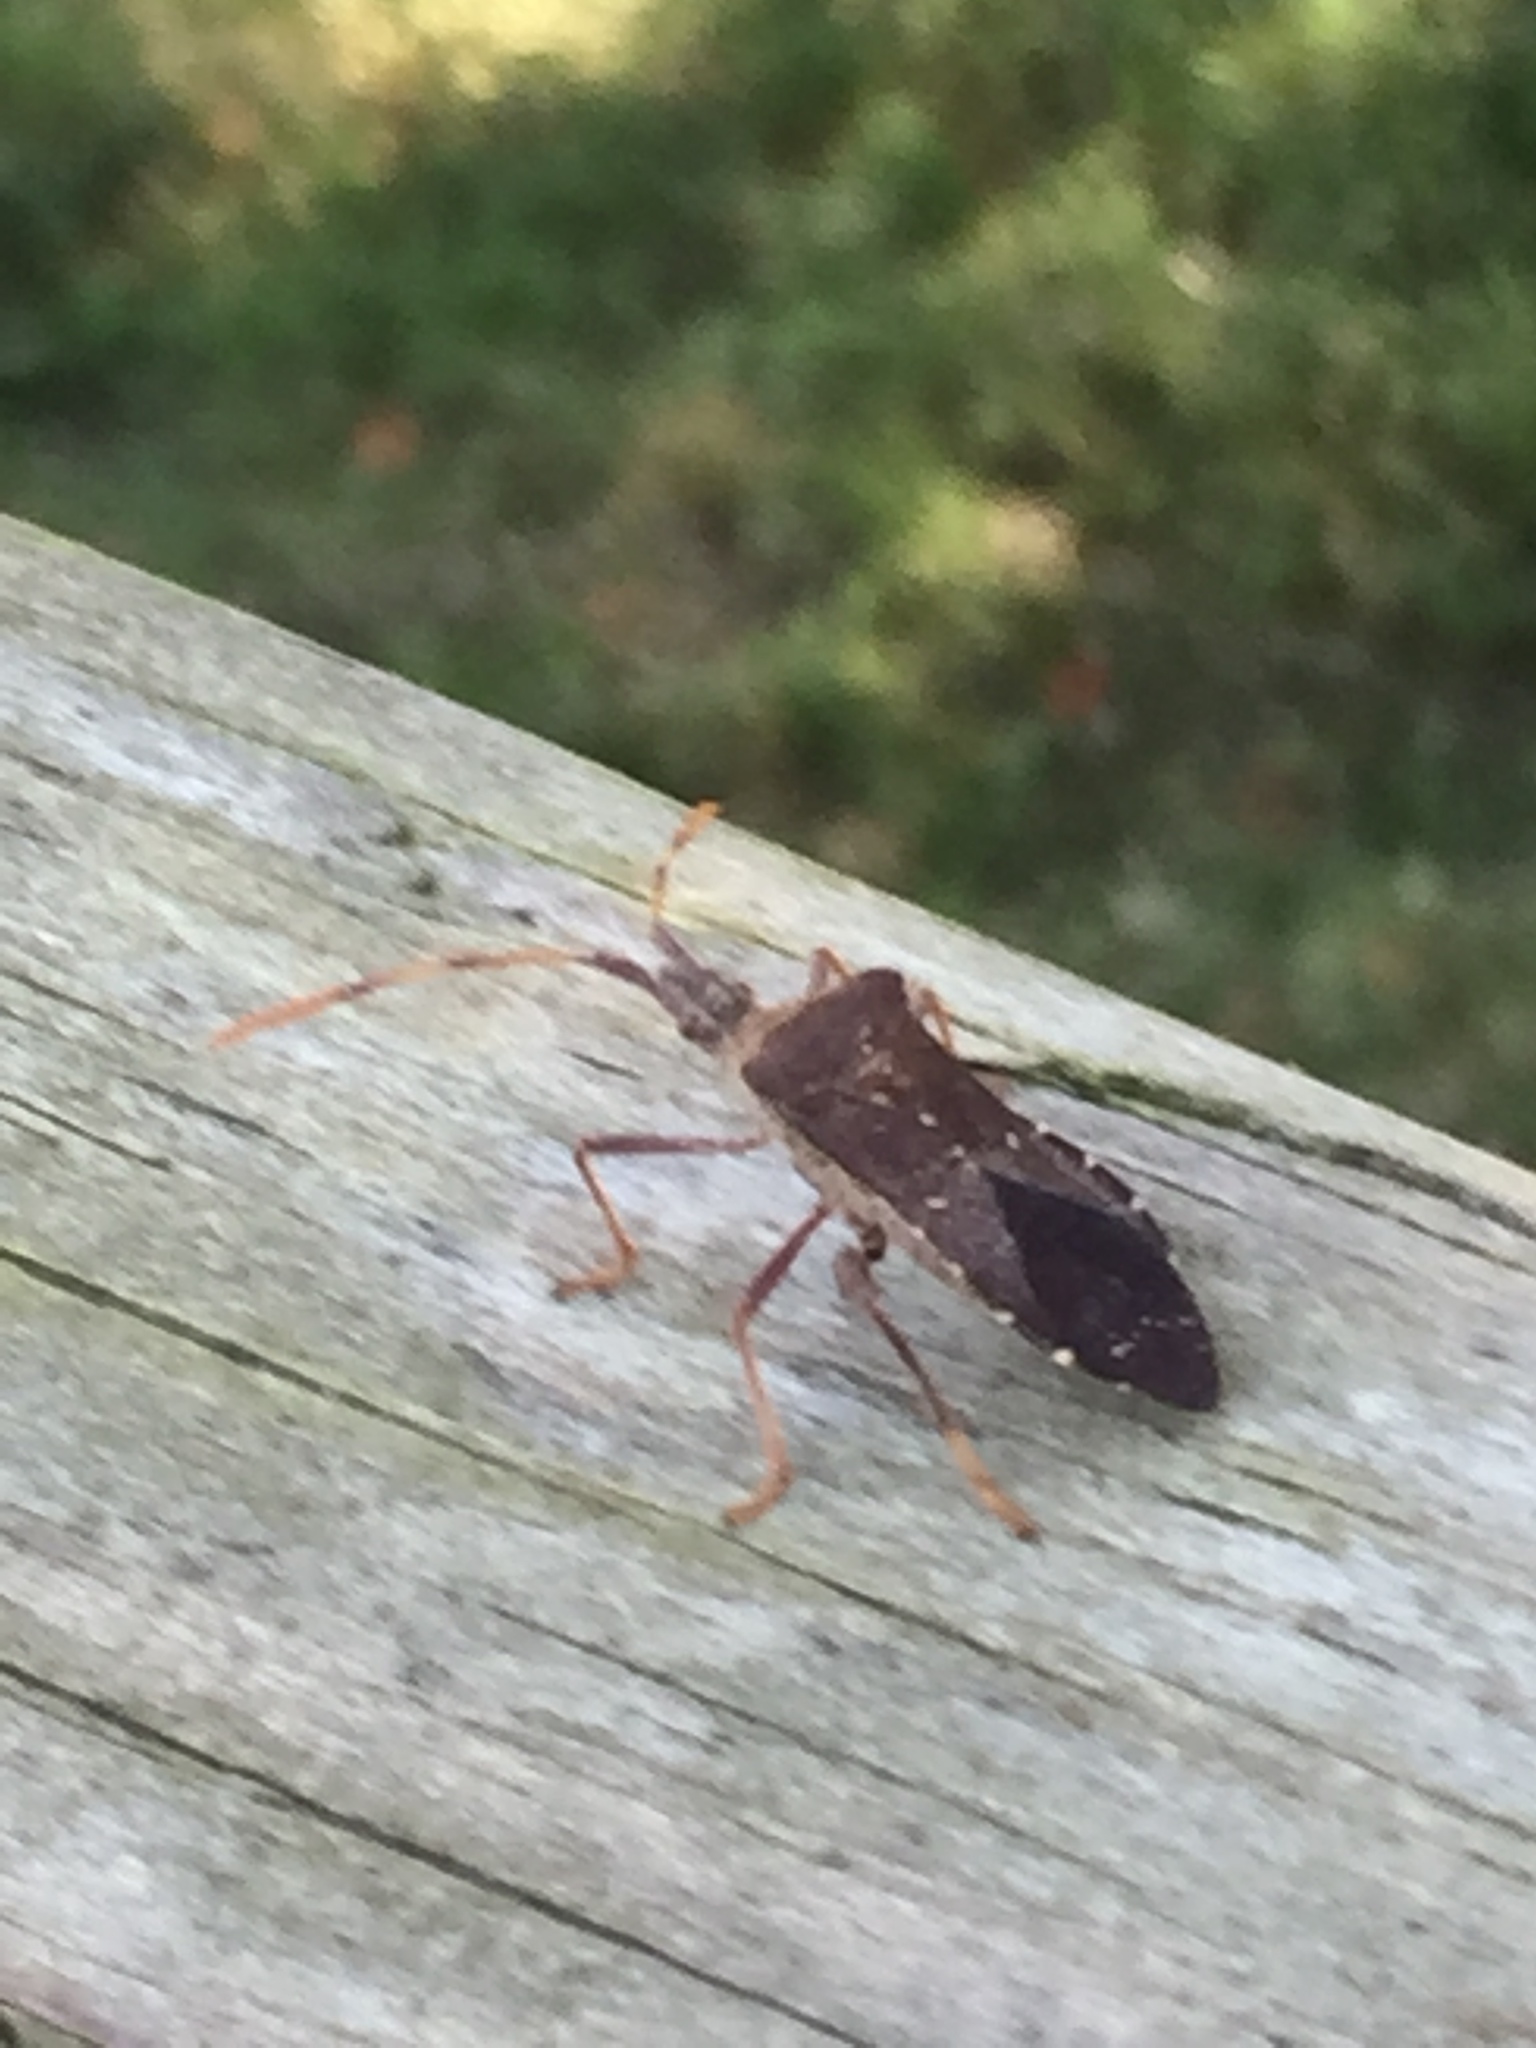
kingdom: Animalia
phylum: Arthropoda
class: Insecta
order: Hemiptera
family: Coreidae
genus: Leptoglossus
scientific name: Leptoglossus oppositus
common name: Northern leaf-footed bug
